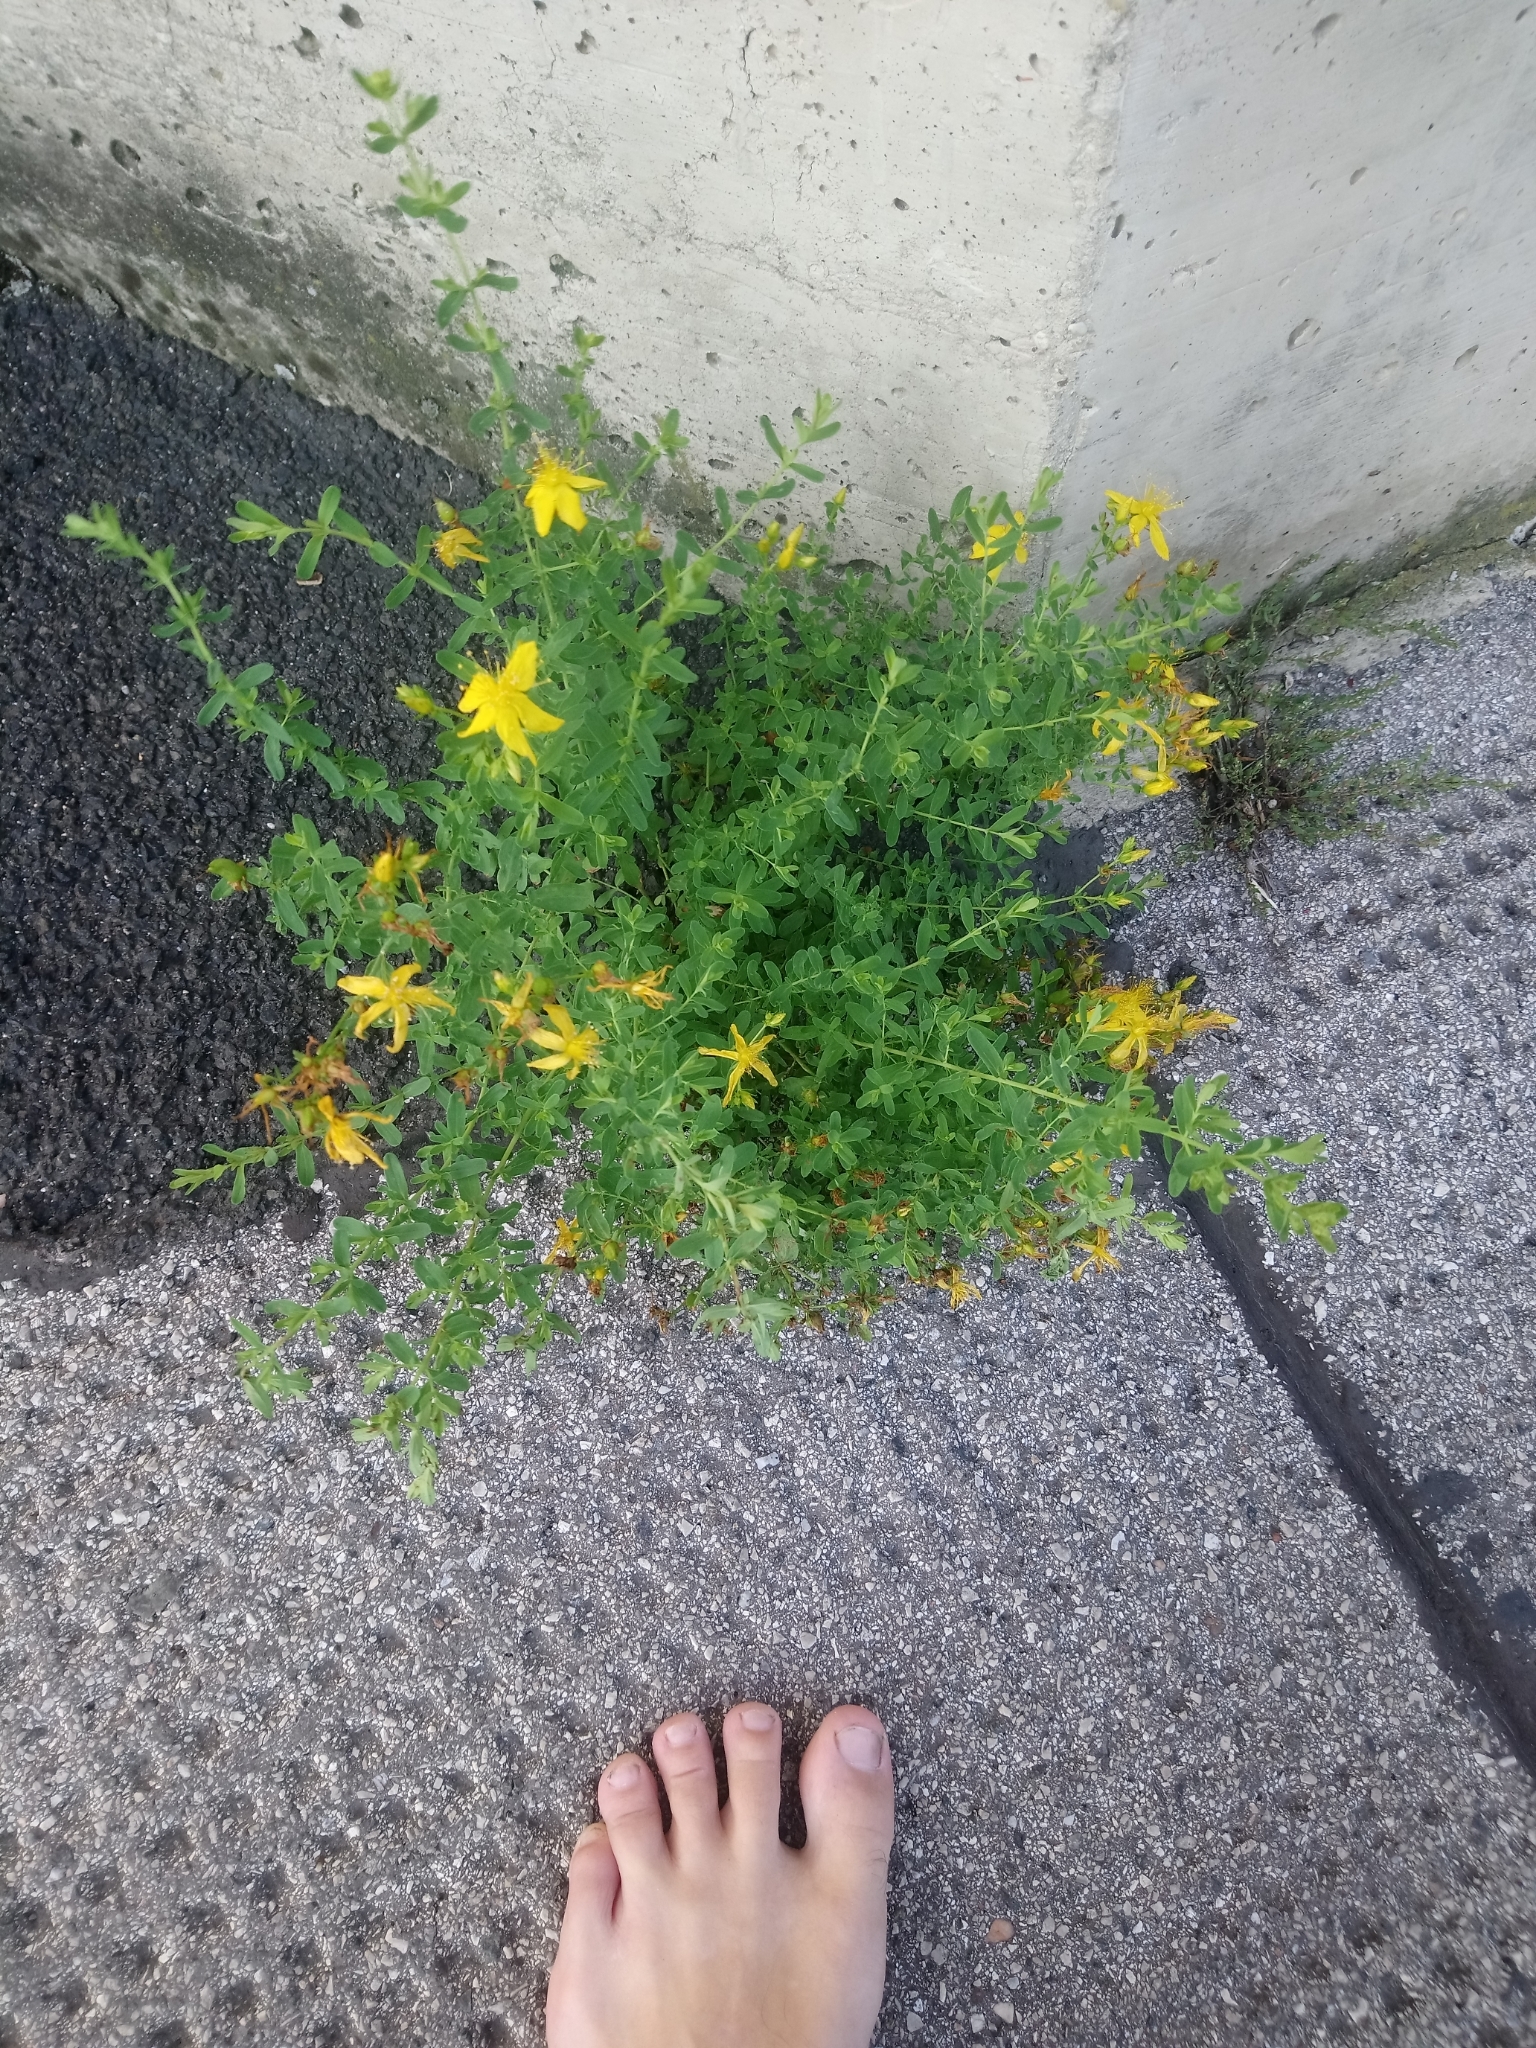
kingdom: Plantae
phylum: Tracheophyta
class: Magnoliopsida
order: Malpighiales
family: Hypericaceae
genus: Hypericum
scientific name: Hypericum perforatum
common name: Common st. johnswort
